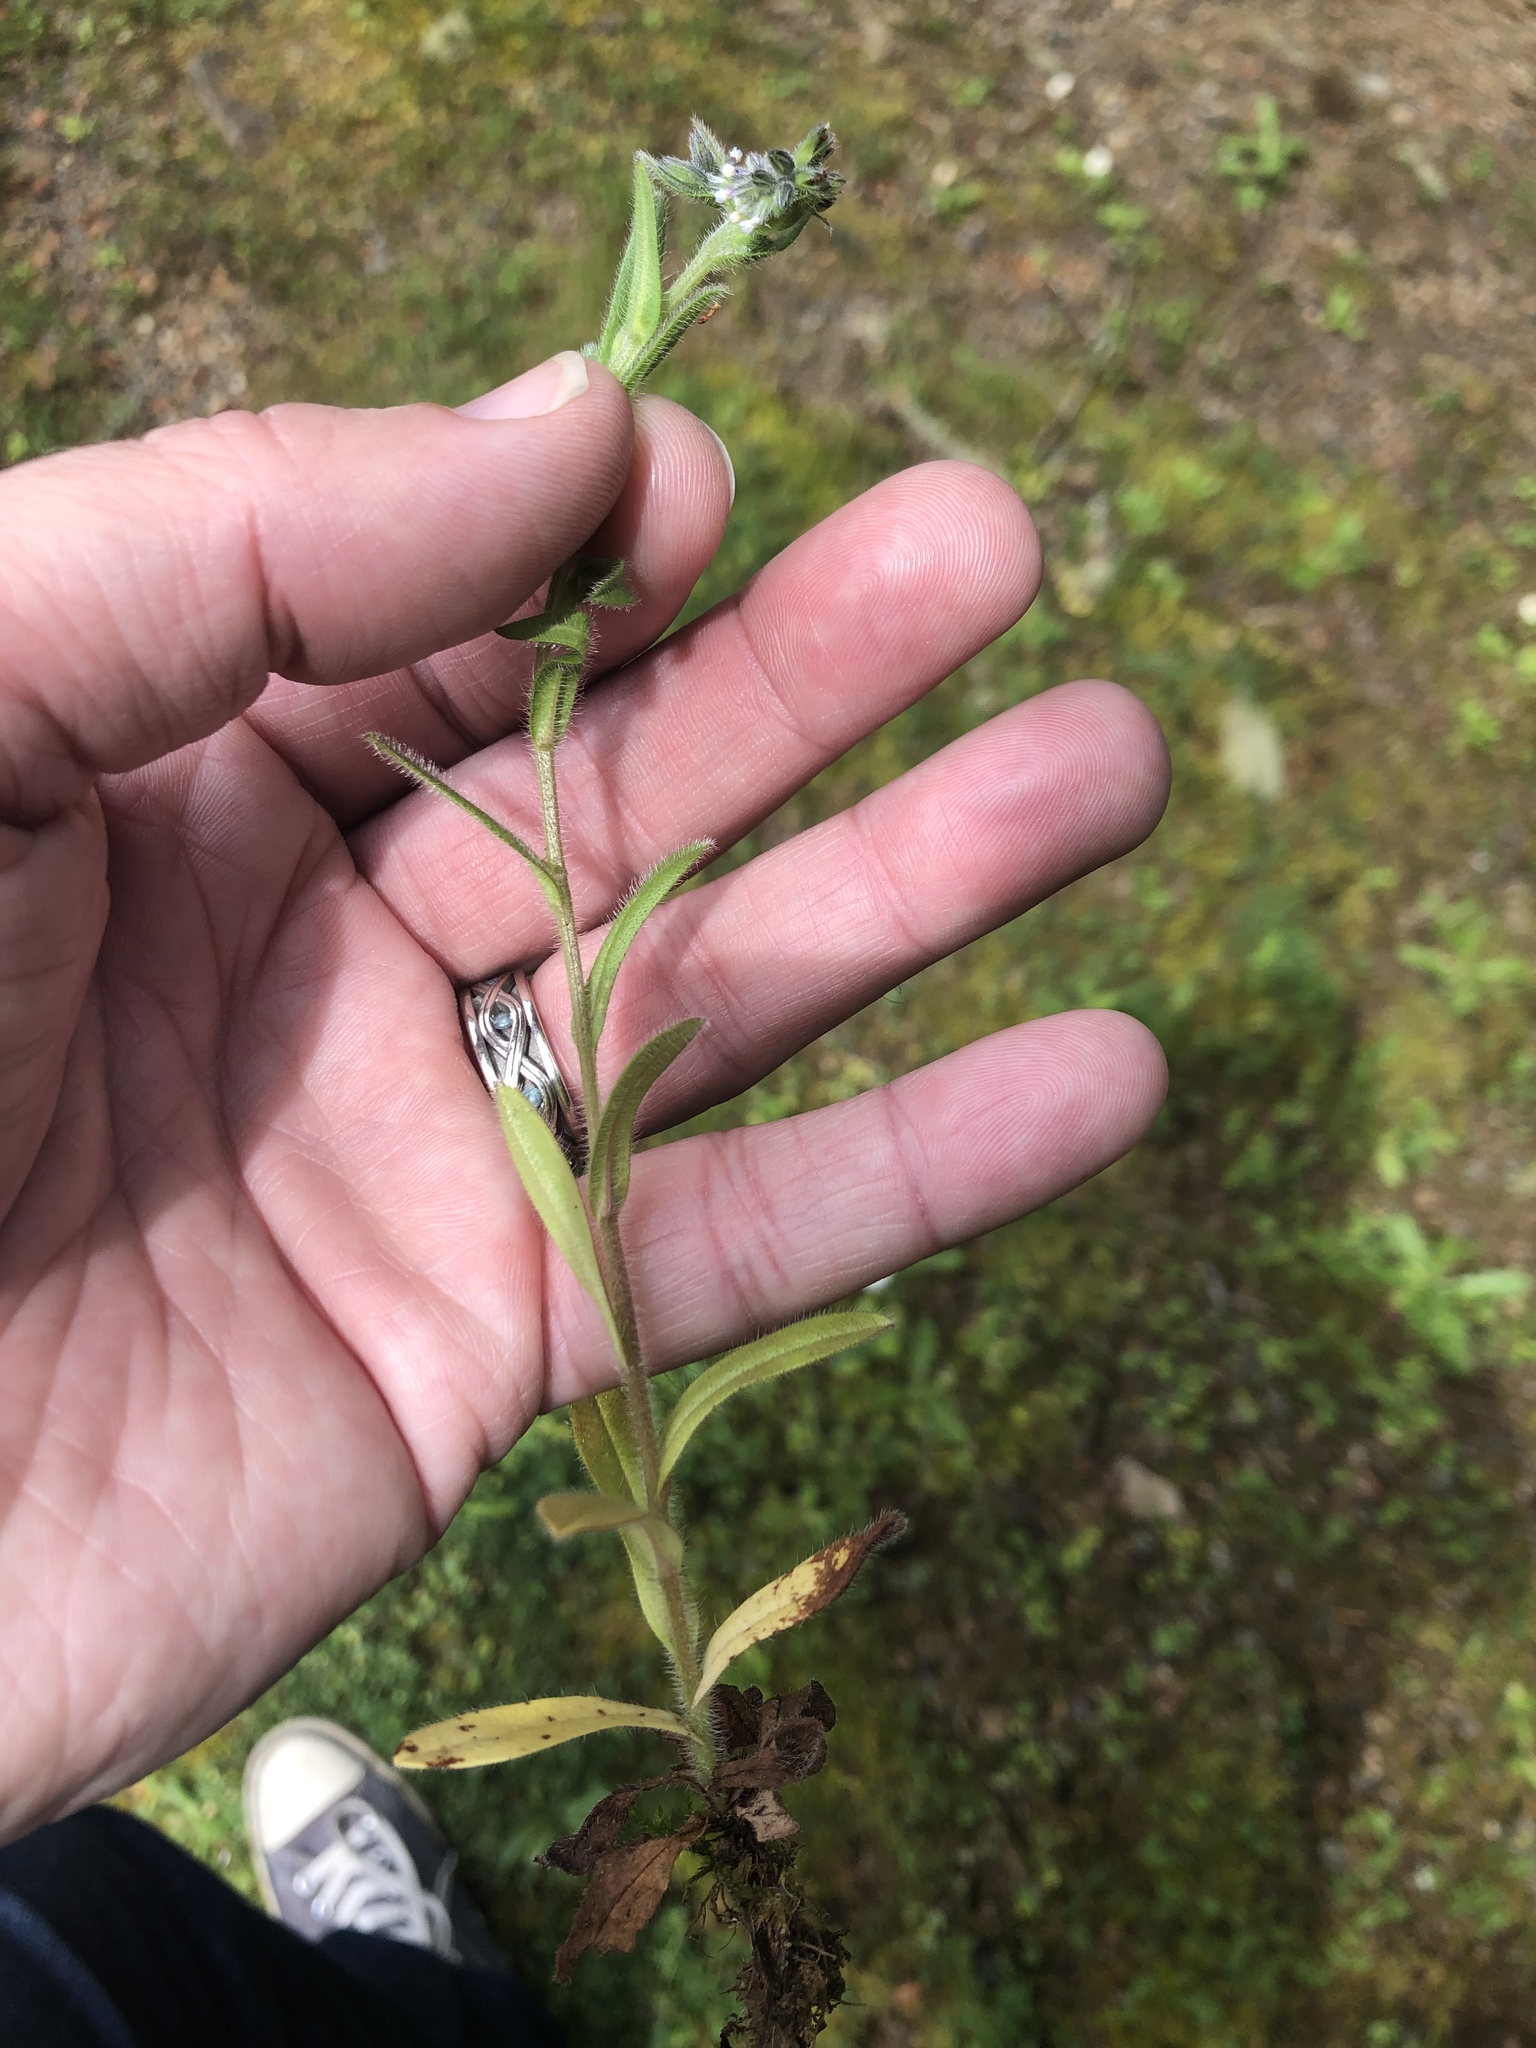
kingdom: Plantae
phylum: Tracheophyta
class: Magnoliopsida
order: Boraginales
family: Boraginaceae
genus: Myosotis
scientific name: Myosotis discolor
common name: Changing forget-me-not
